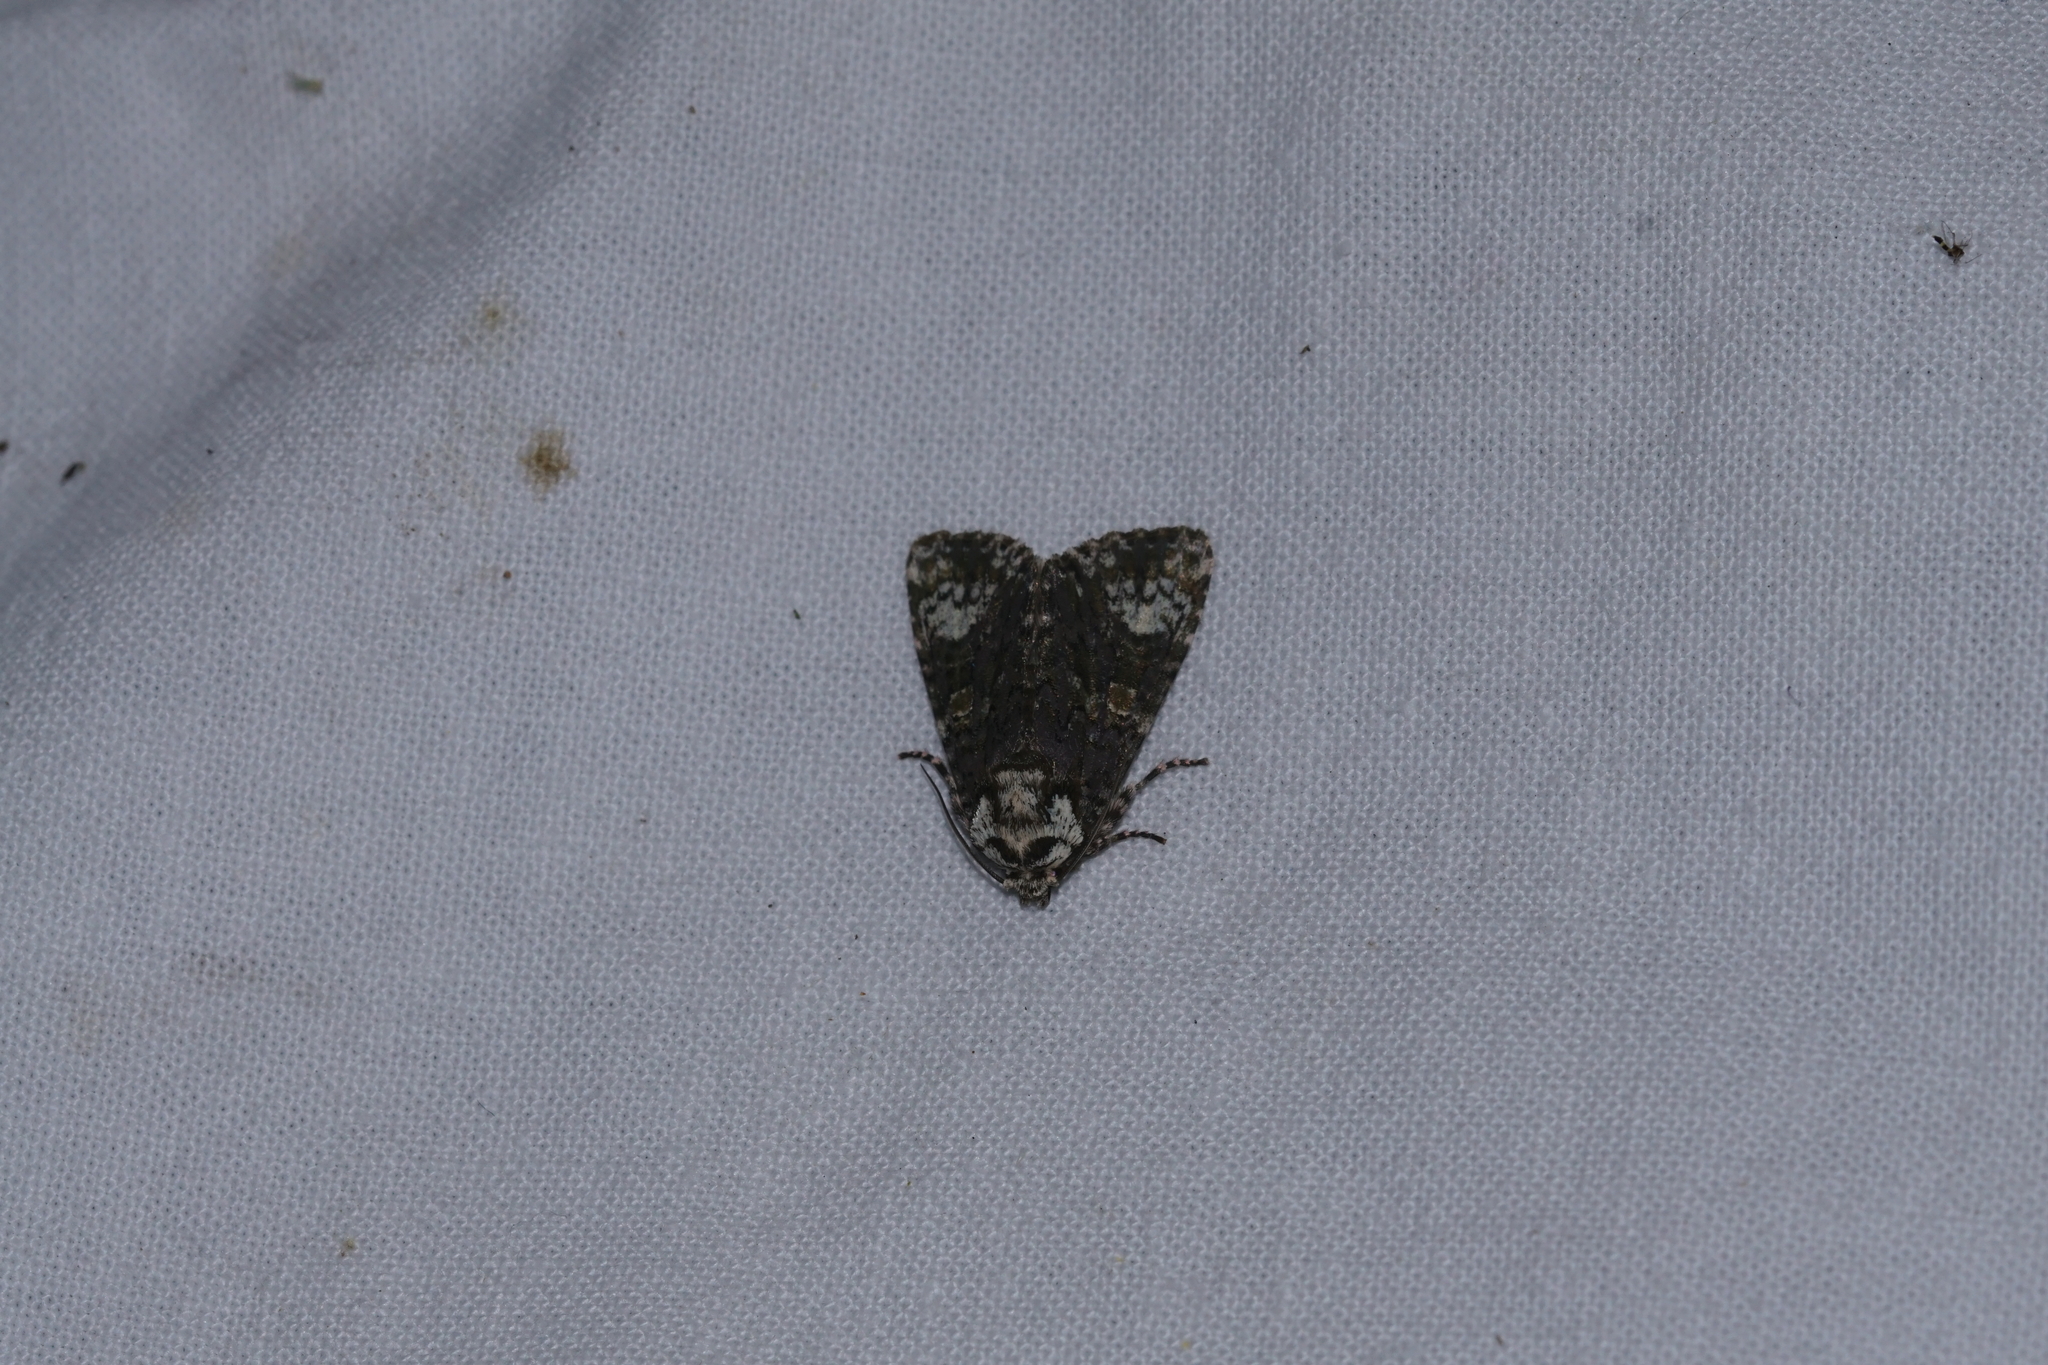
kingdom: Animalia
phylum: Arthropoda
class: Insecta
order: Lepidoptera
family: Noctuidae
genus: Craniophora
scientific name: Craniophora ligustri
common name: Coronet
